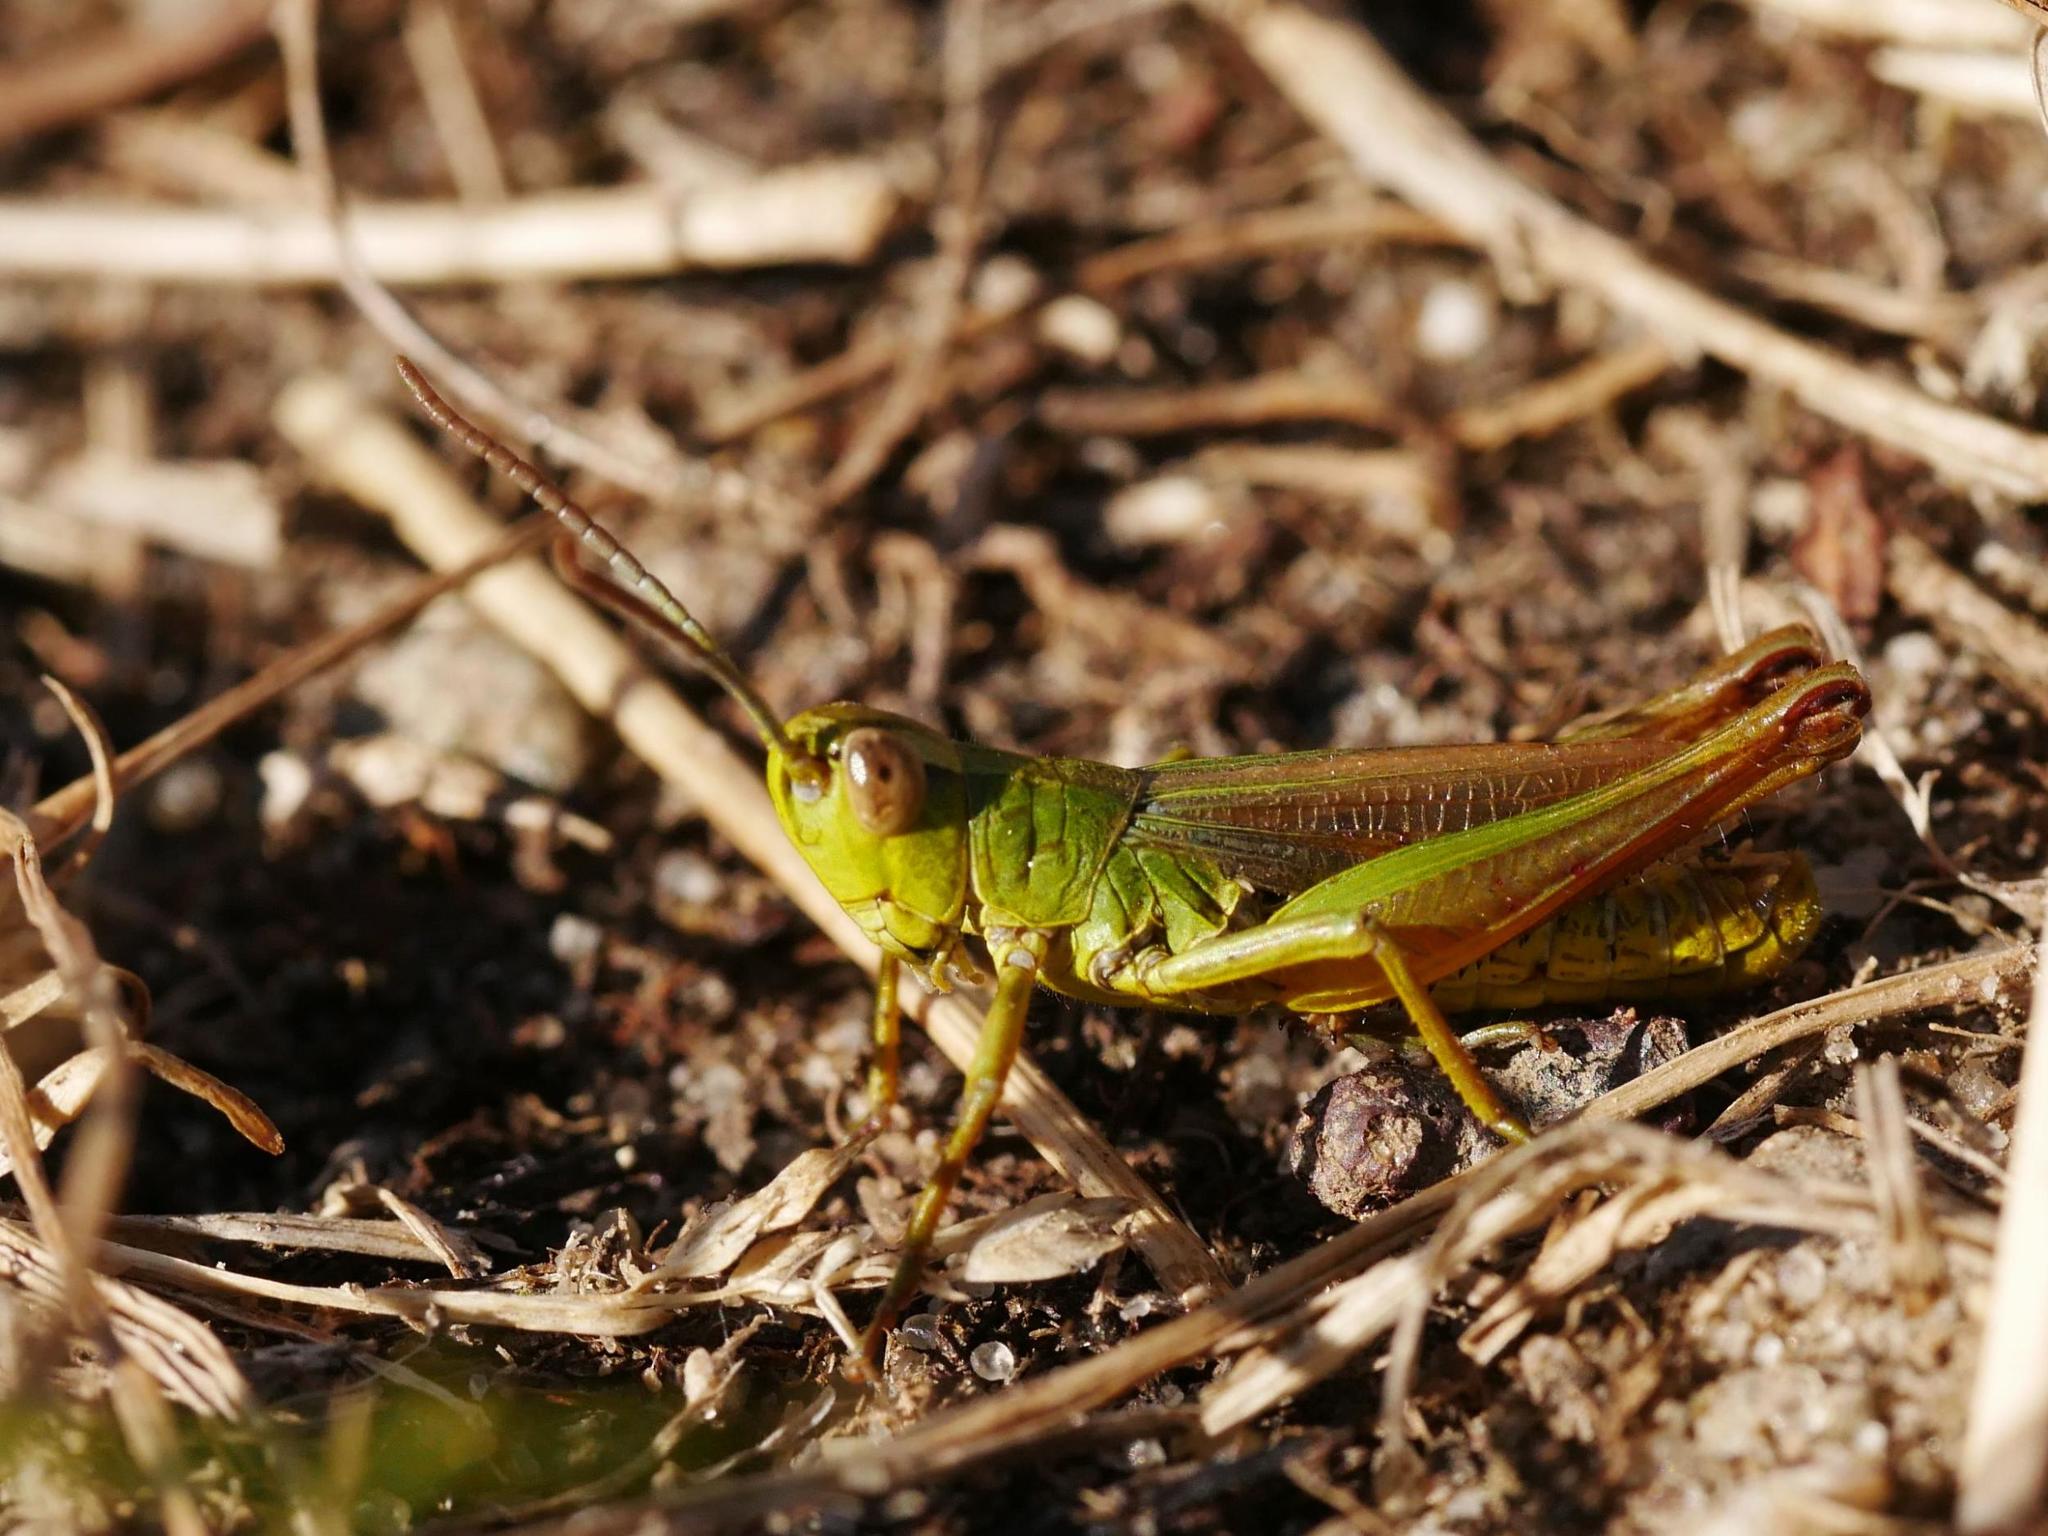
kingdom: Animalia
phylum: Arthropoda
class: Insecta
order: Orthoptera
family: Acrididae
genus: Pseudochorthippus
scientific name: Pseudochorthippus parallelus
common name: Meadow grasshopper
